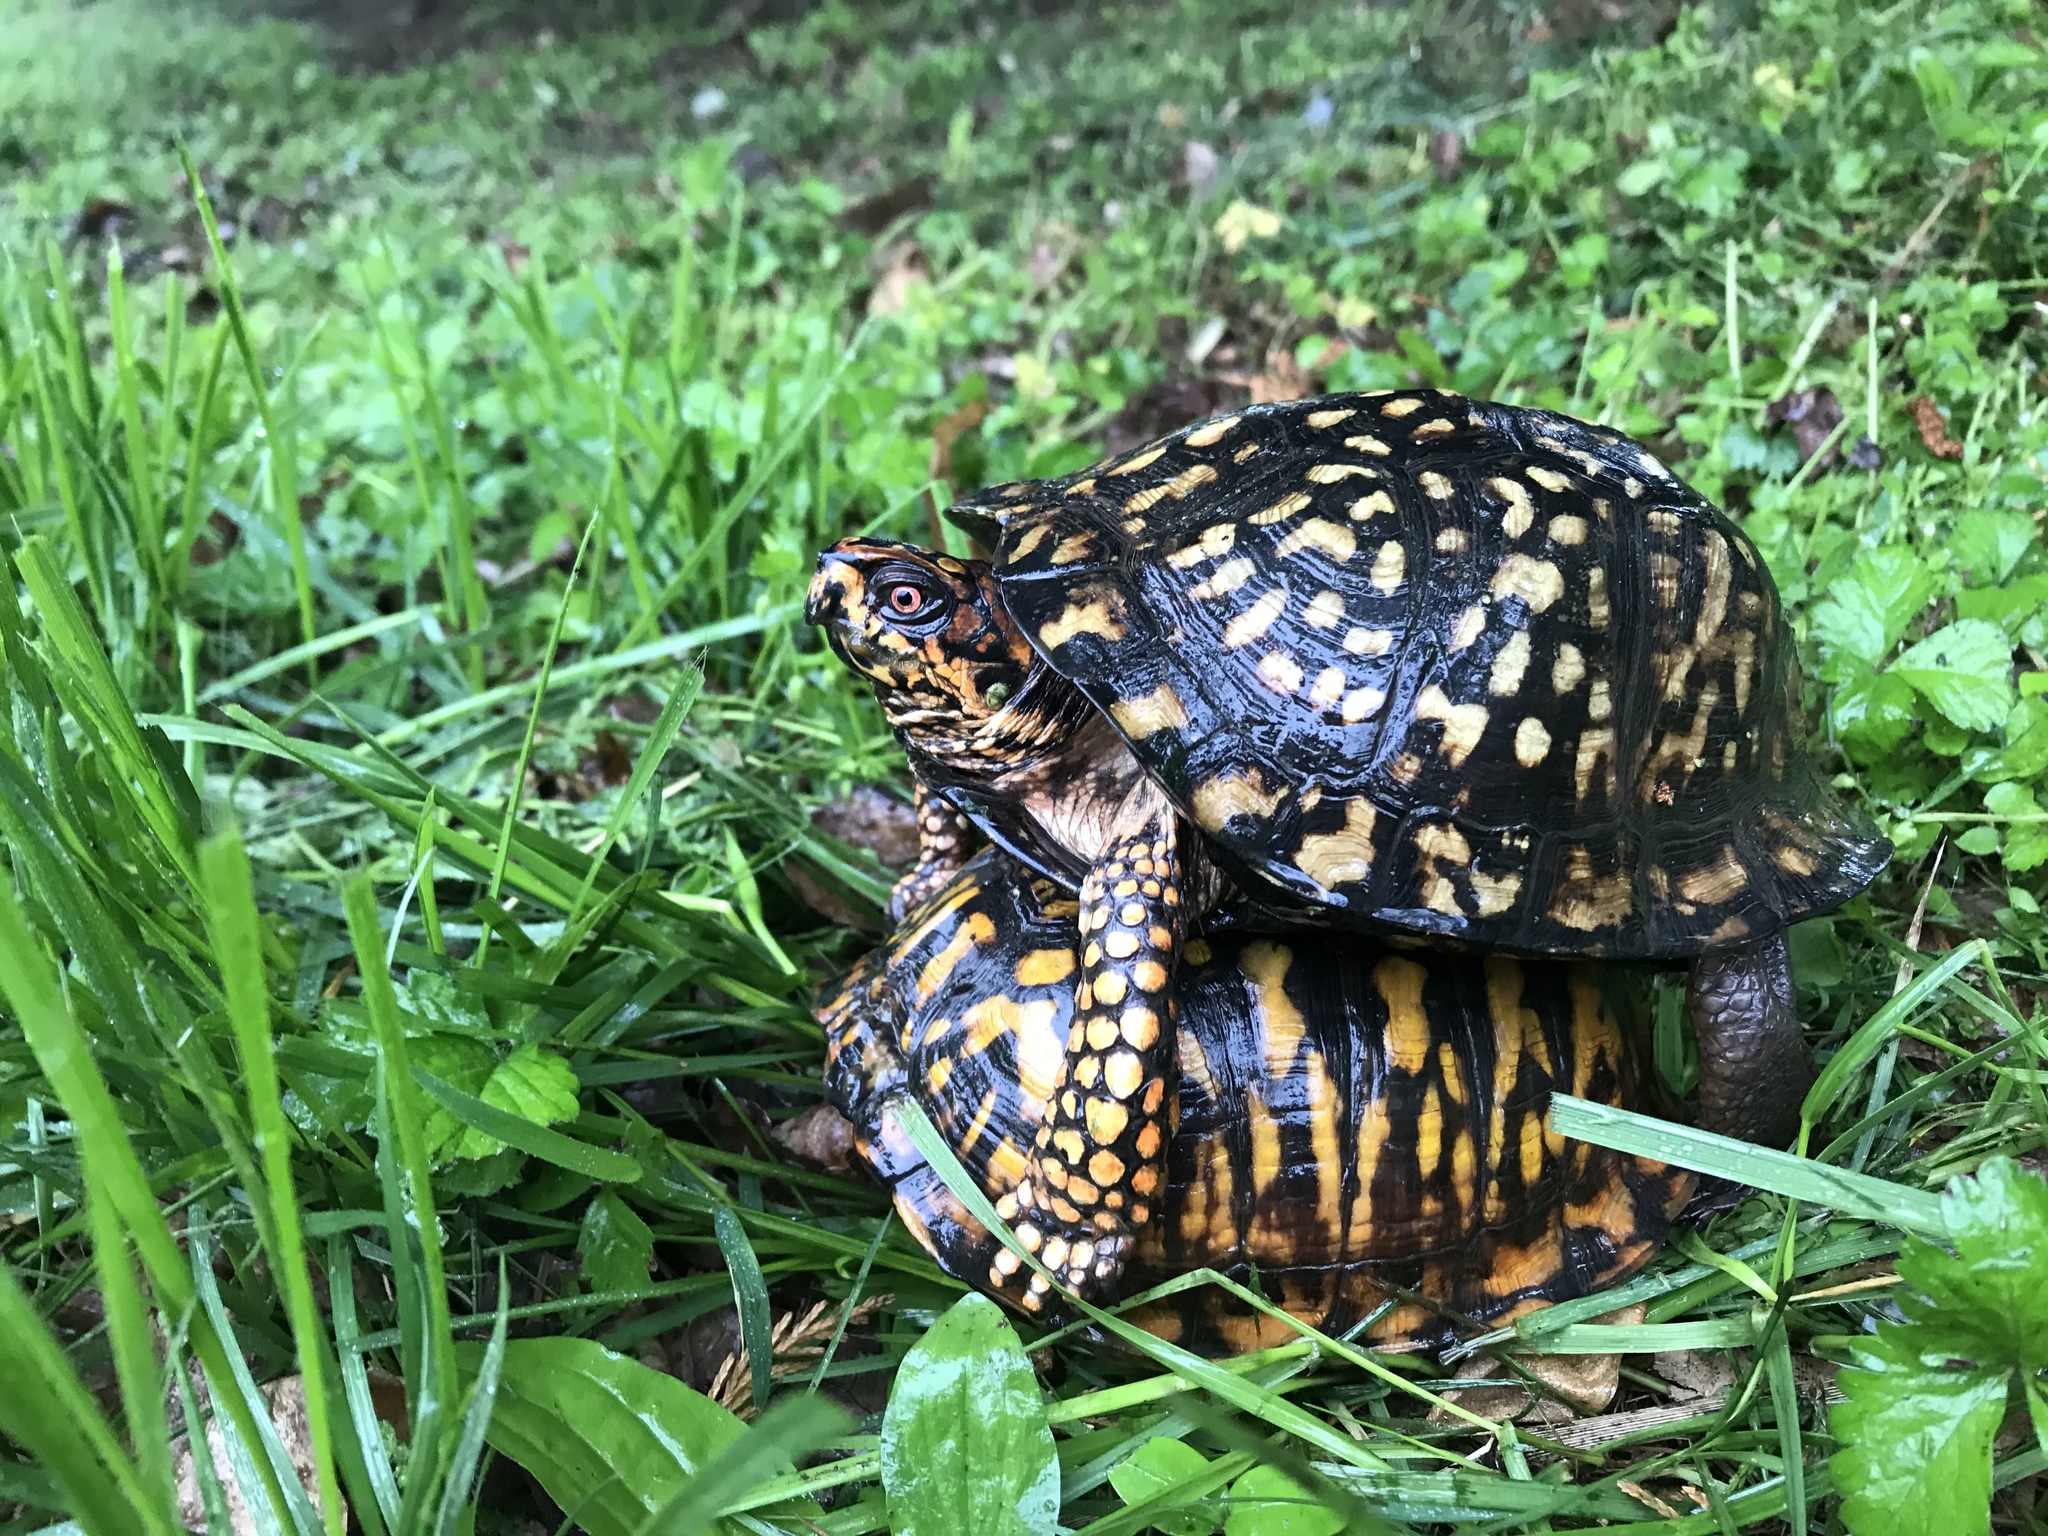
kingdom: Animalia
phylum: Chordata
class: Testudines
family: Emydidae
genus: Terrapene
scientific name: Terrapene carolina
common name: Common box turtle
